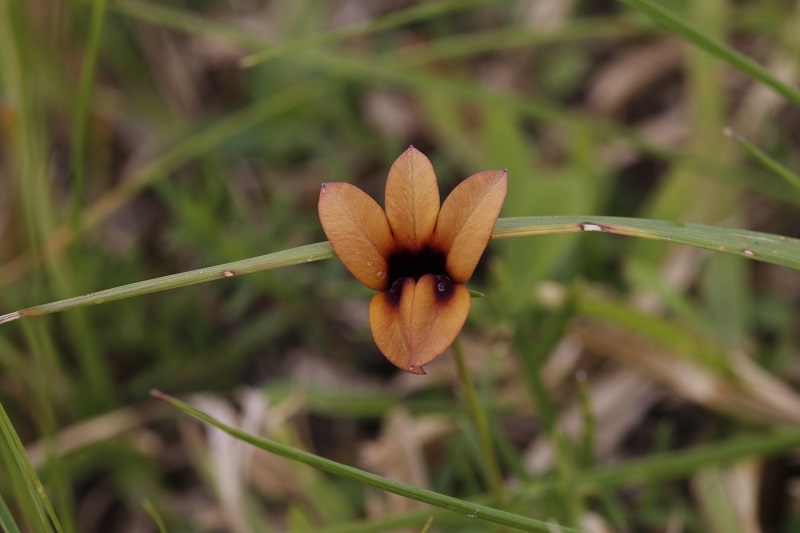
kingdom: Plantae
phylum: Tracheophyta
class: Magnoliopsida
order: Asterales
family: Campanulaceae
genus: Monopsis
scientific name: Monopsis unidentata
